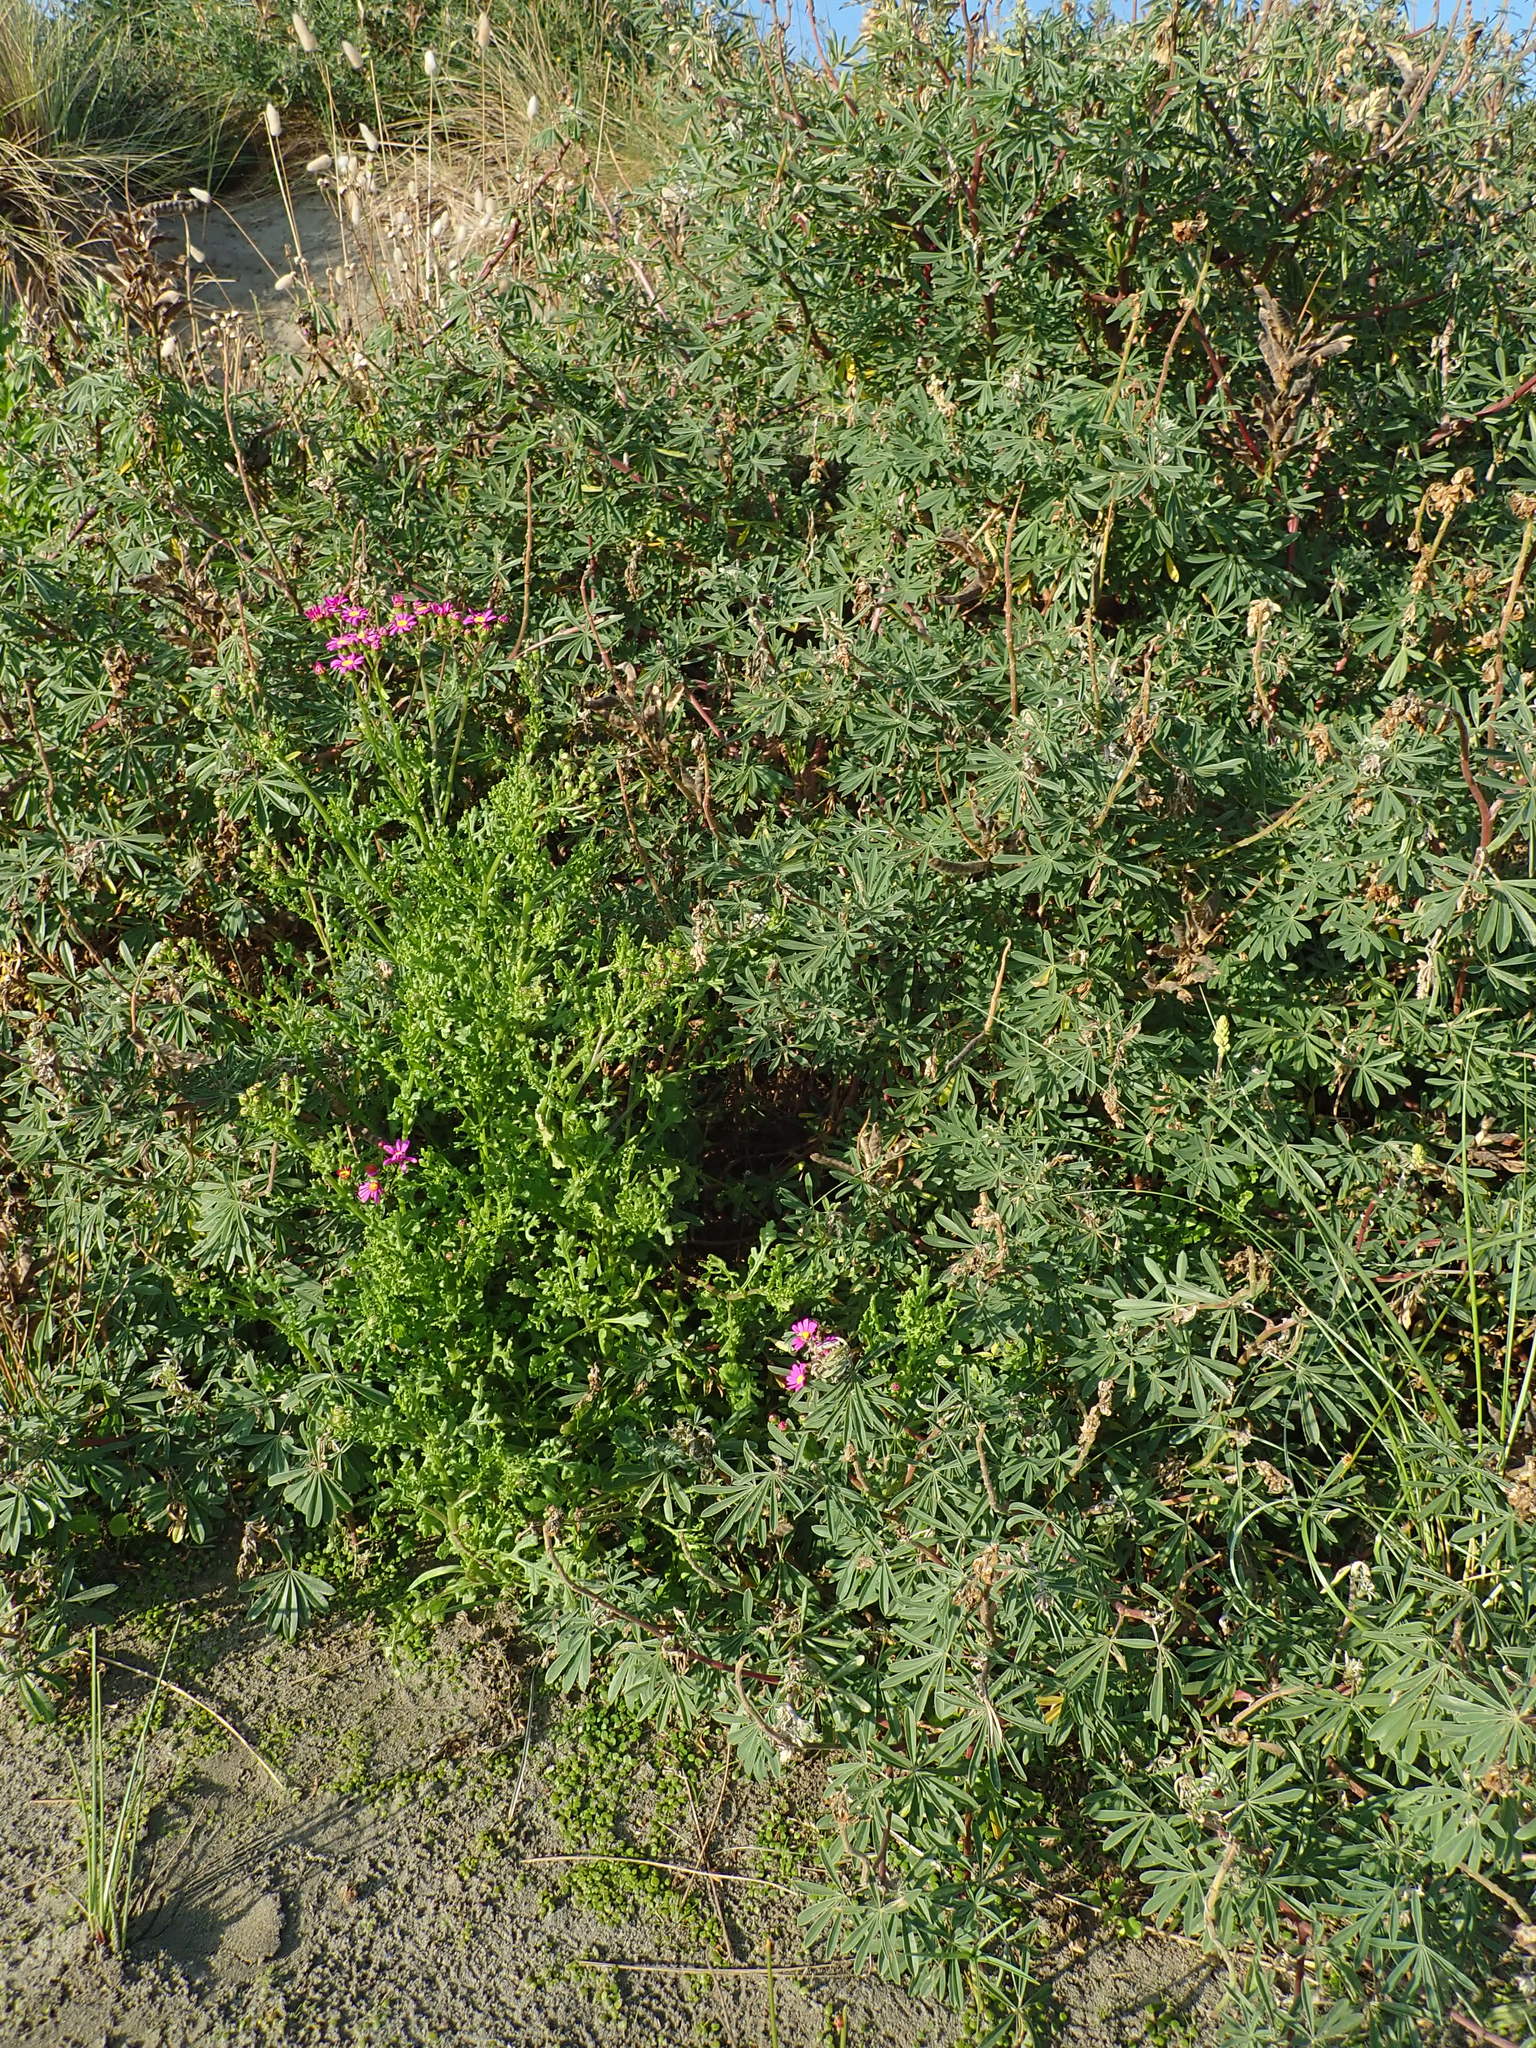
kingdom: Plantae
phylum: Tracheophyta
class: Magnoliopsida
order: Asterales
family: Asteraceae
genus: Senecio
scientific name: Senecio elegans
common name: Purple groundsel
